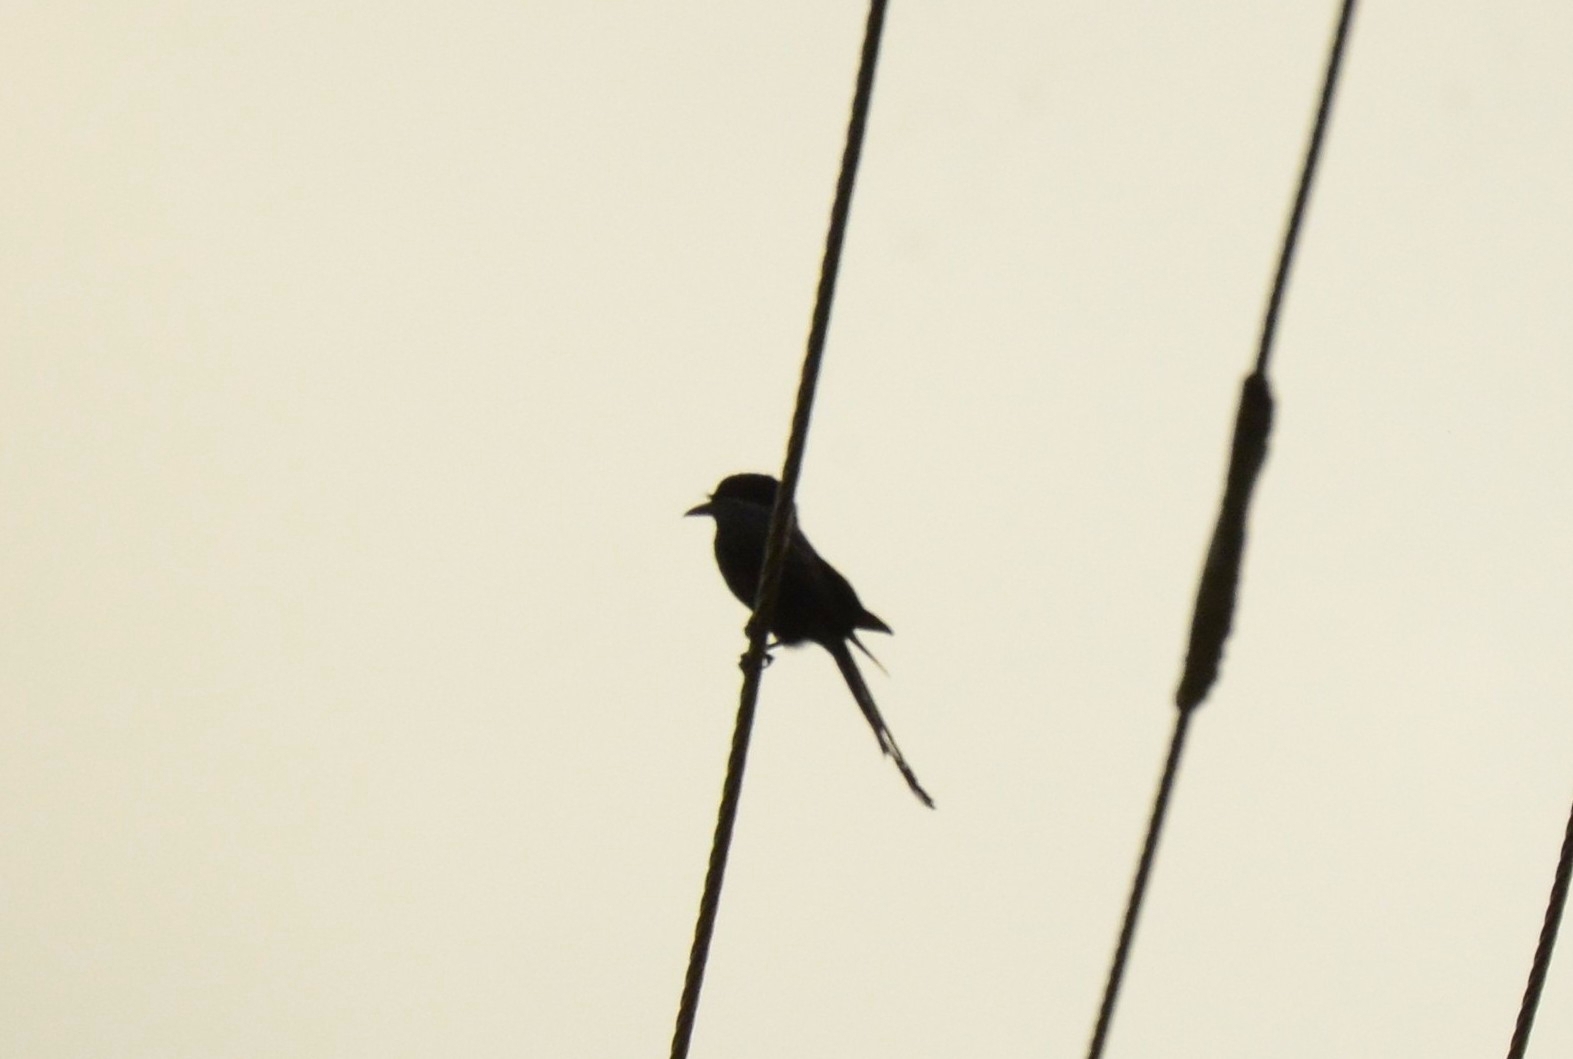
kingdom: Animalia
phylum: Chordata
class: Aves
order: Passeriformes
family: Dicruridae
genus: Dicrurus
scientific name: Dicrurus macrocercus
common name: Black drongo
